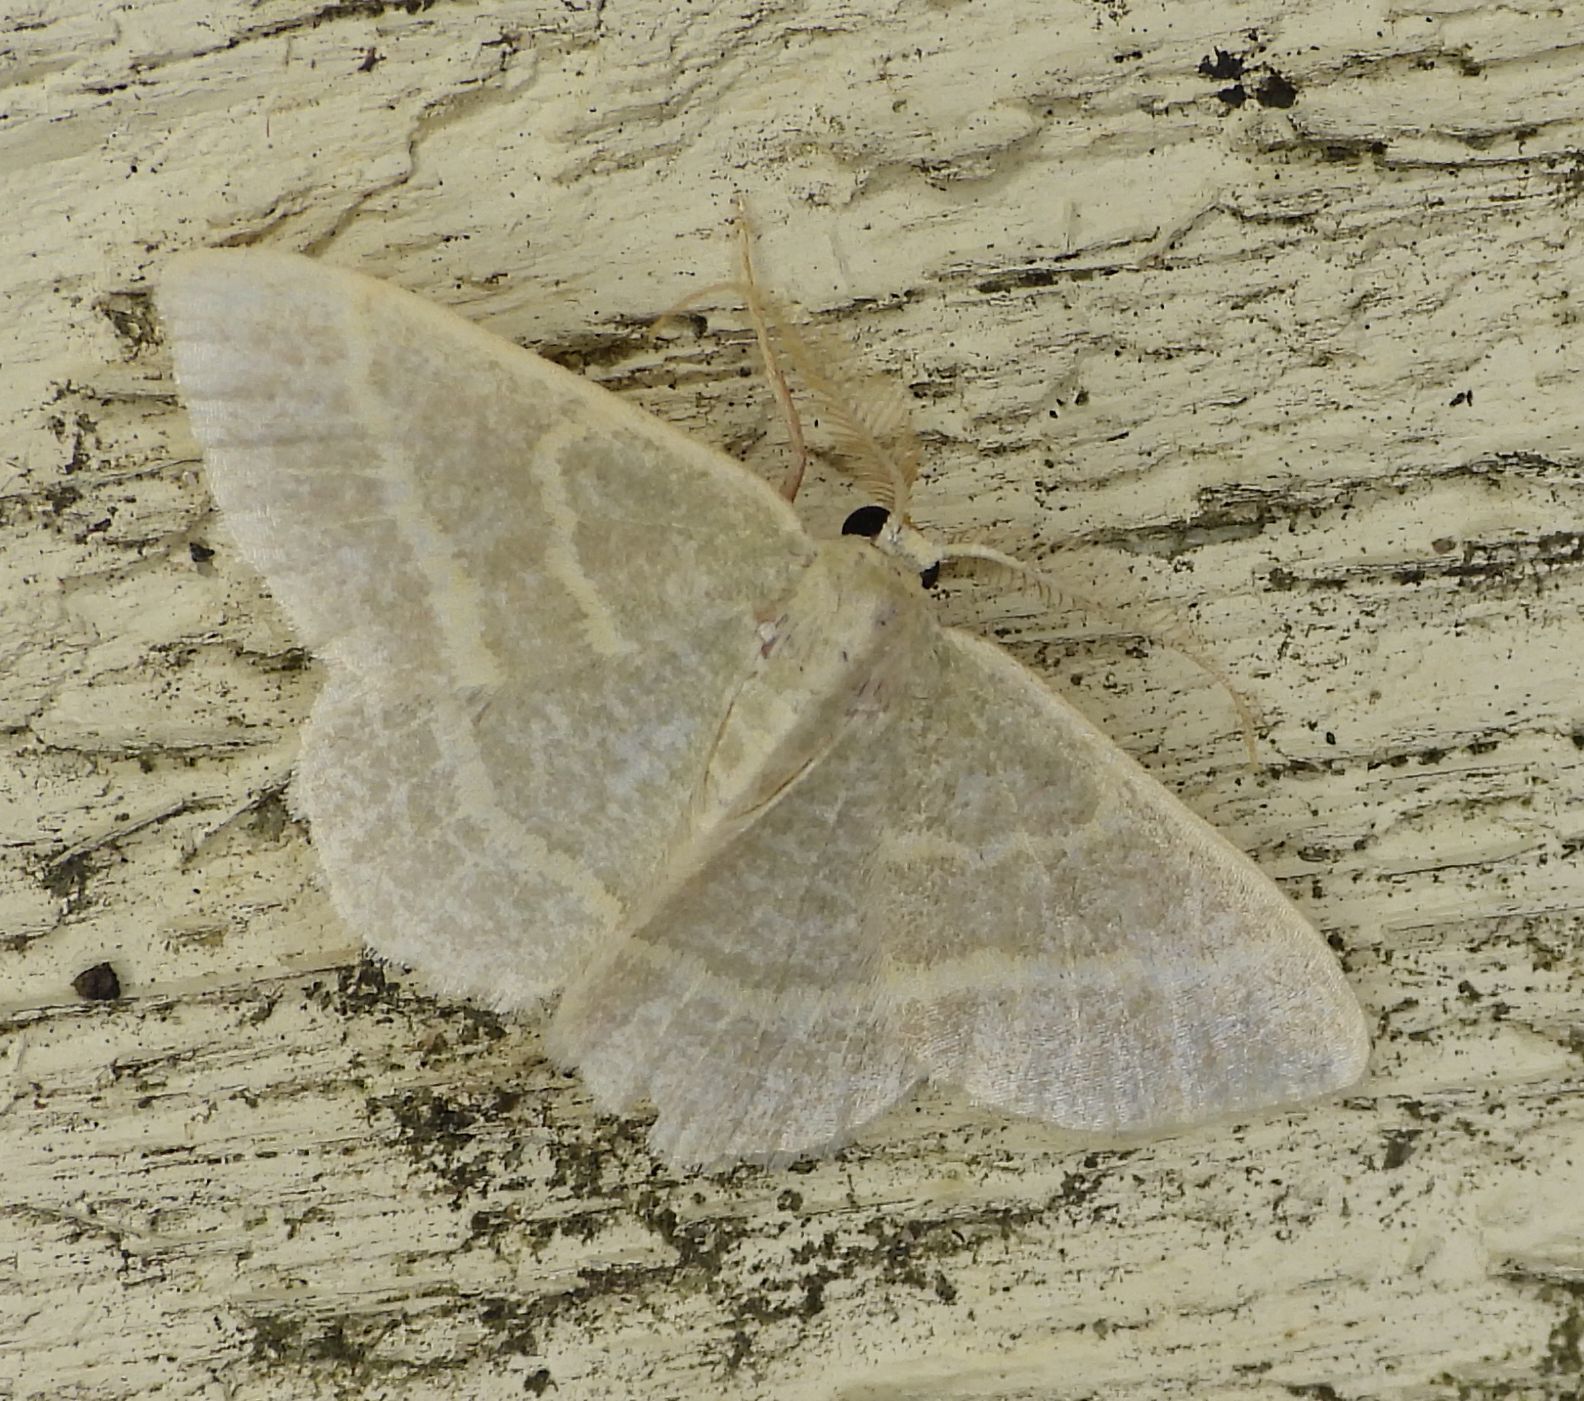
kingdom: Animalia
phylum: Arthropoda
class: Insecta
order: Lepidoptera
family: Geometridae
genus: Chlorochlamys
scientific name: Chlorochlamys chloroleucaria
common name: Blackberry looper
